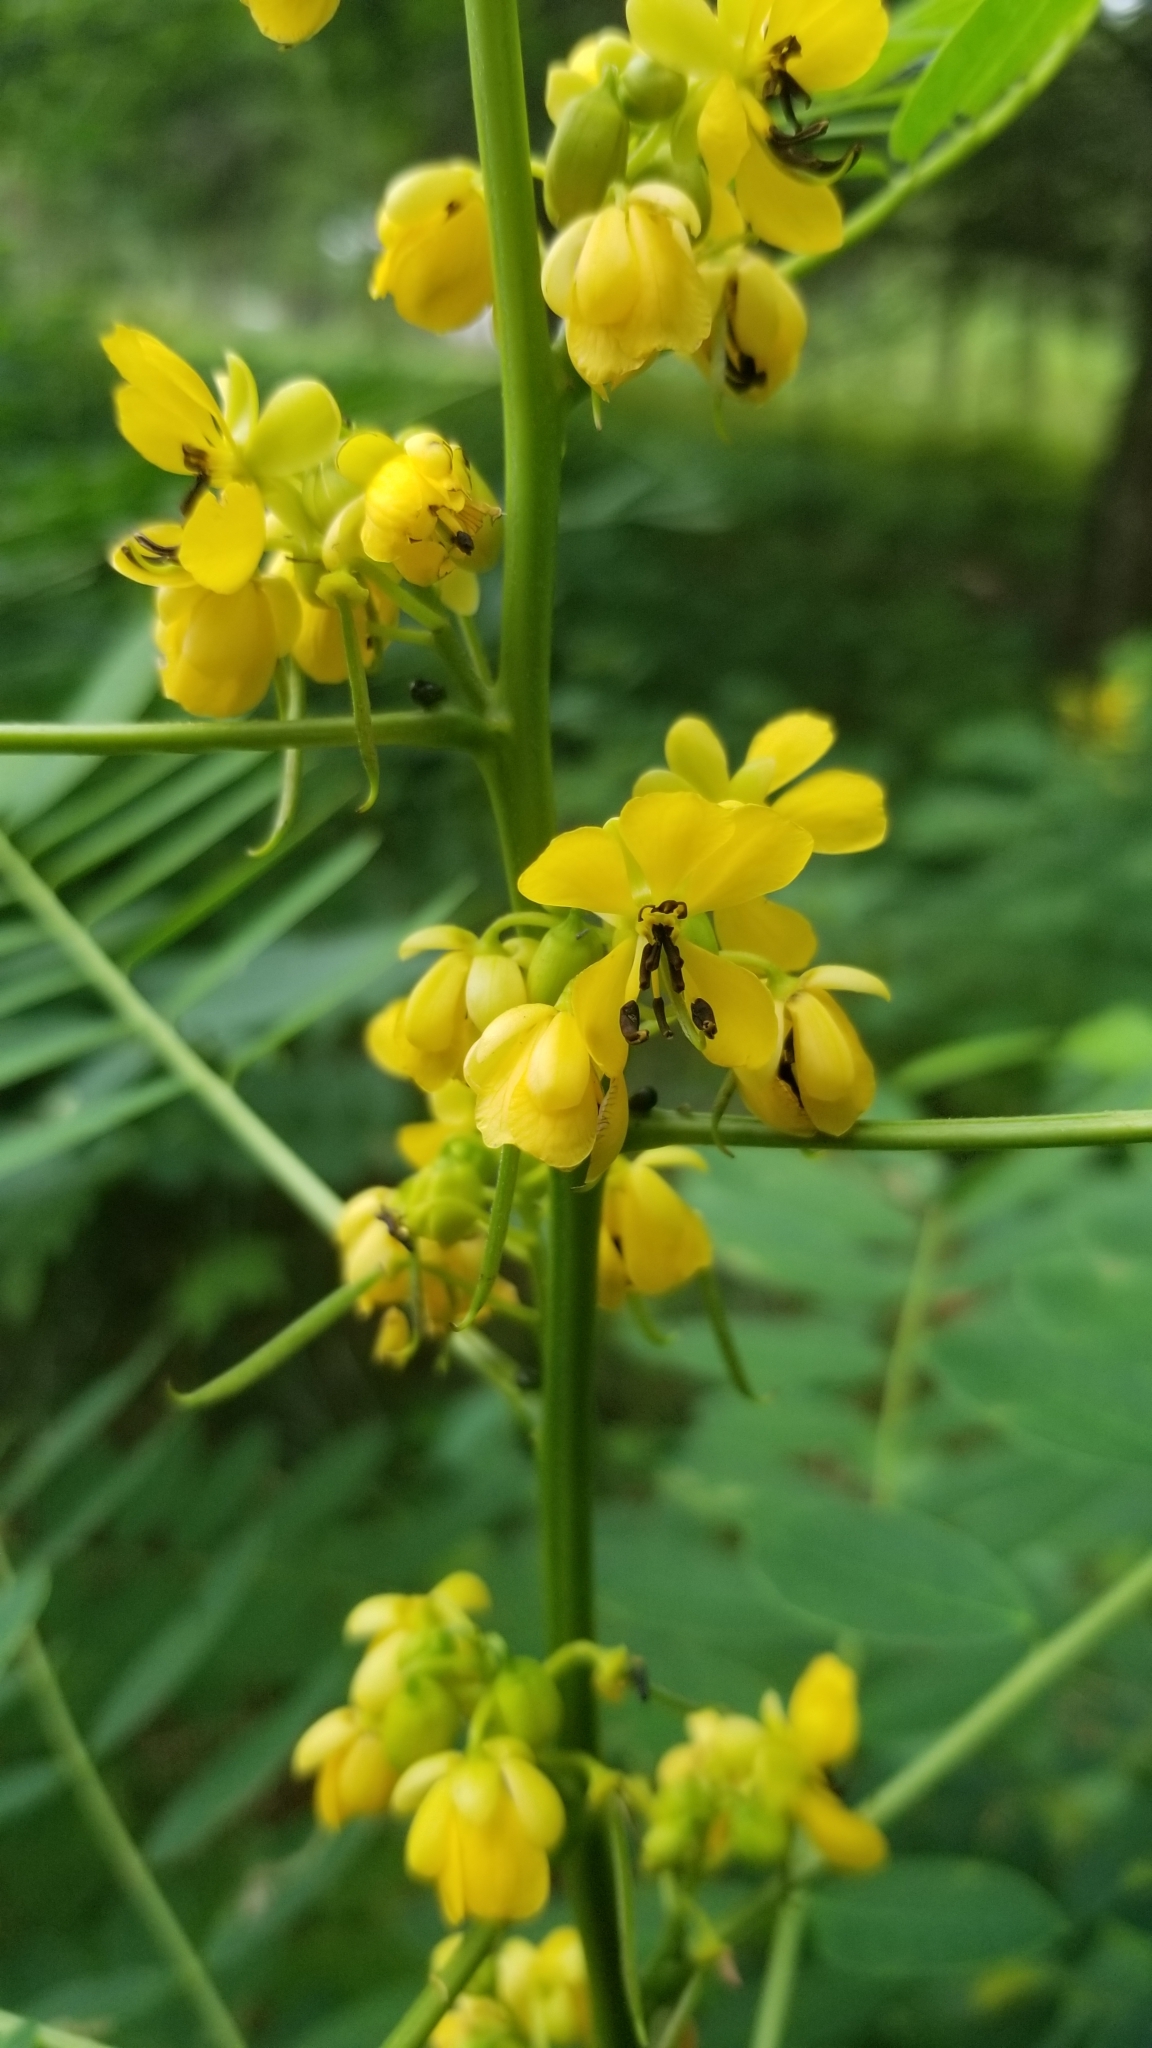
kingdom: Plantae
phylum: Tracheophyta
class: Magnoliopsida
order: Fabales
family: Fabaceae
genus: Senna
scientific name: Senna marilandica
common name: American senna
